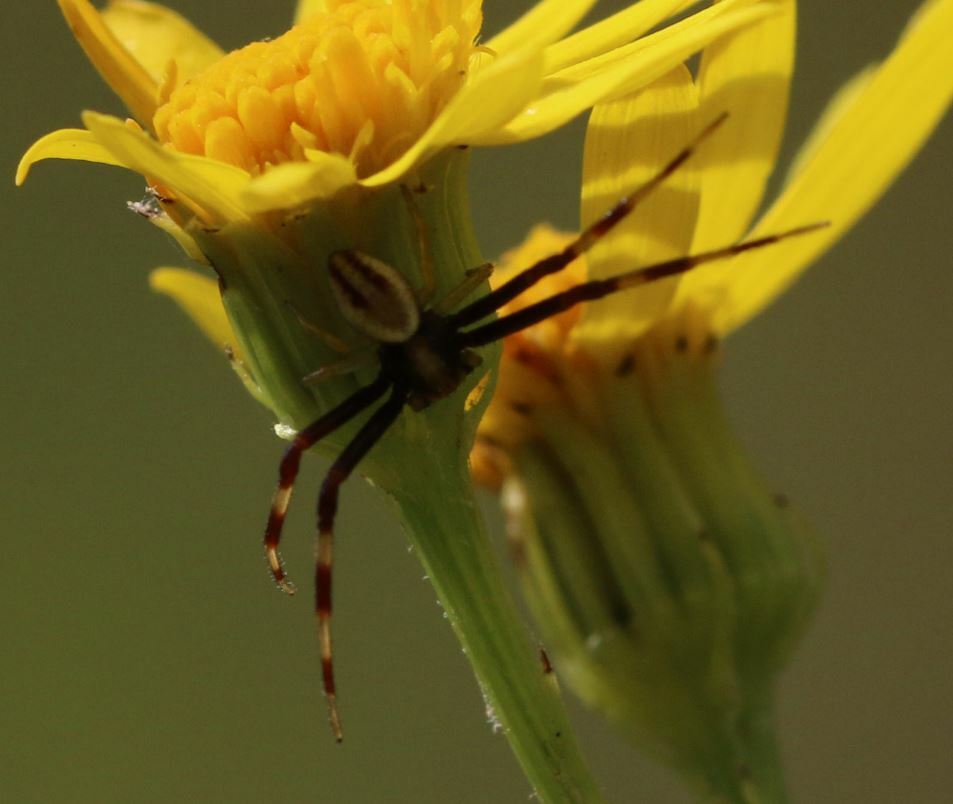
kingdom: Animalia
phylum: Arthropoda
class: Arachnida
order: Araneae
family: Thomisidae
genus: Misumena
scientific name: Misumena vatia
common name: Goldenrod crab spider
